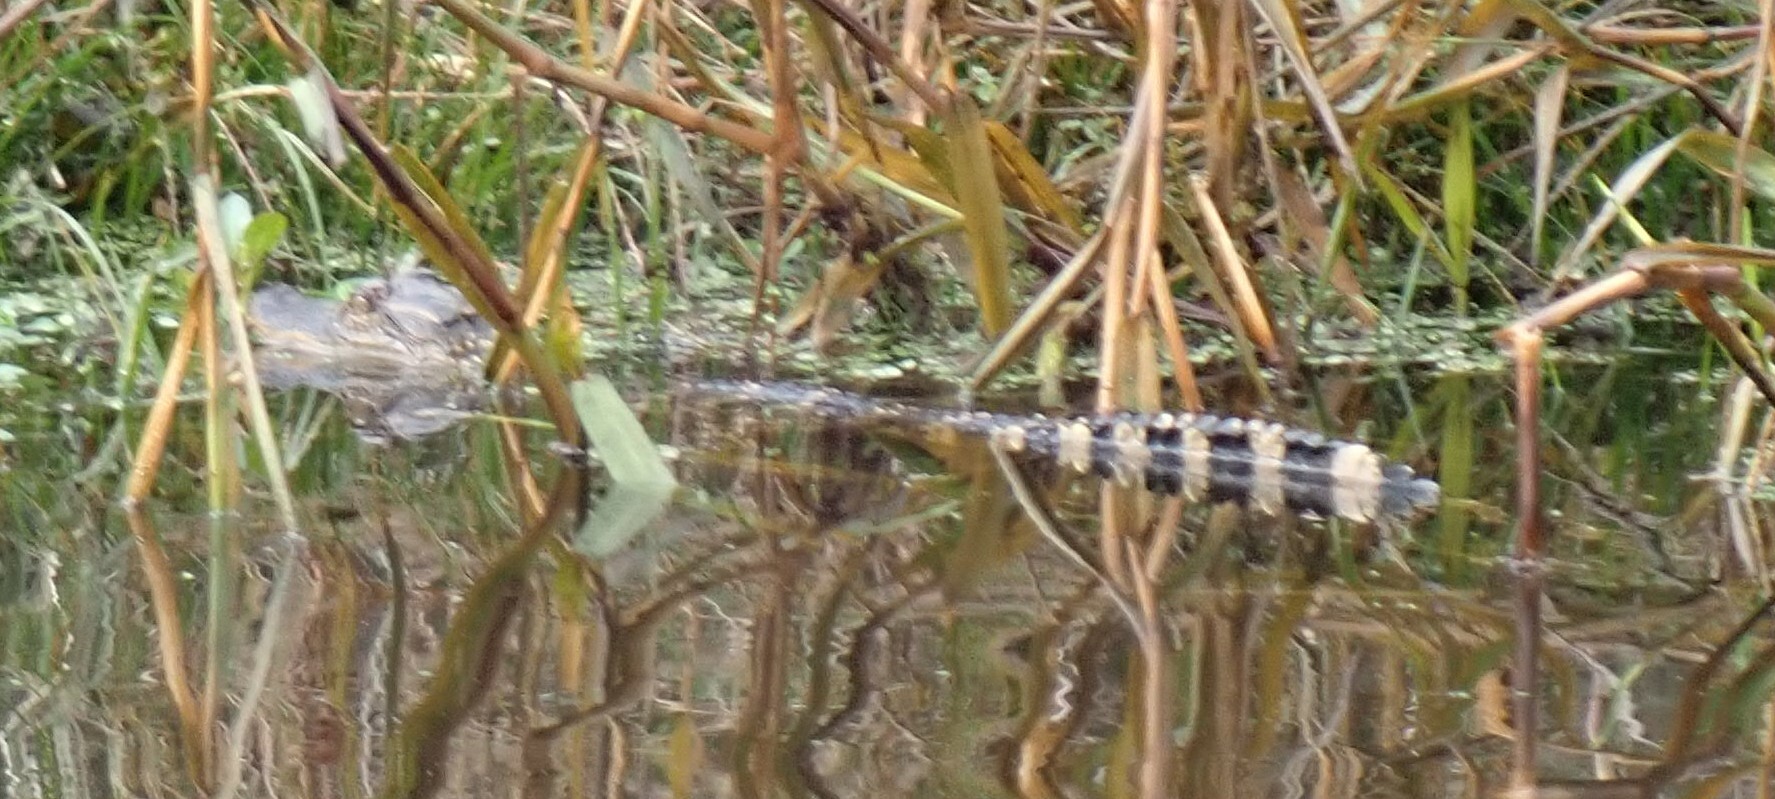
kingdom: Animalia
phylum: Chordata
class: Crocodylia
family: Alligatoridae
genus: Alligator
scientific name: Alligator mississippiensis
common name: American alligator
